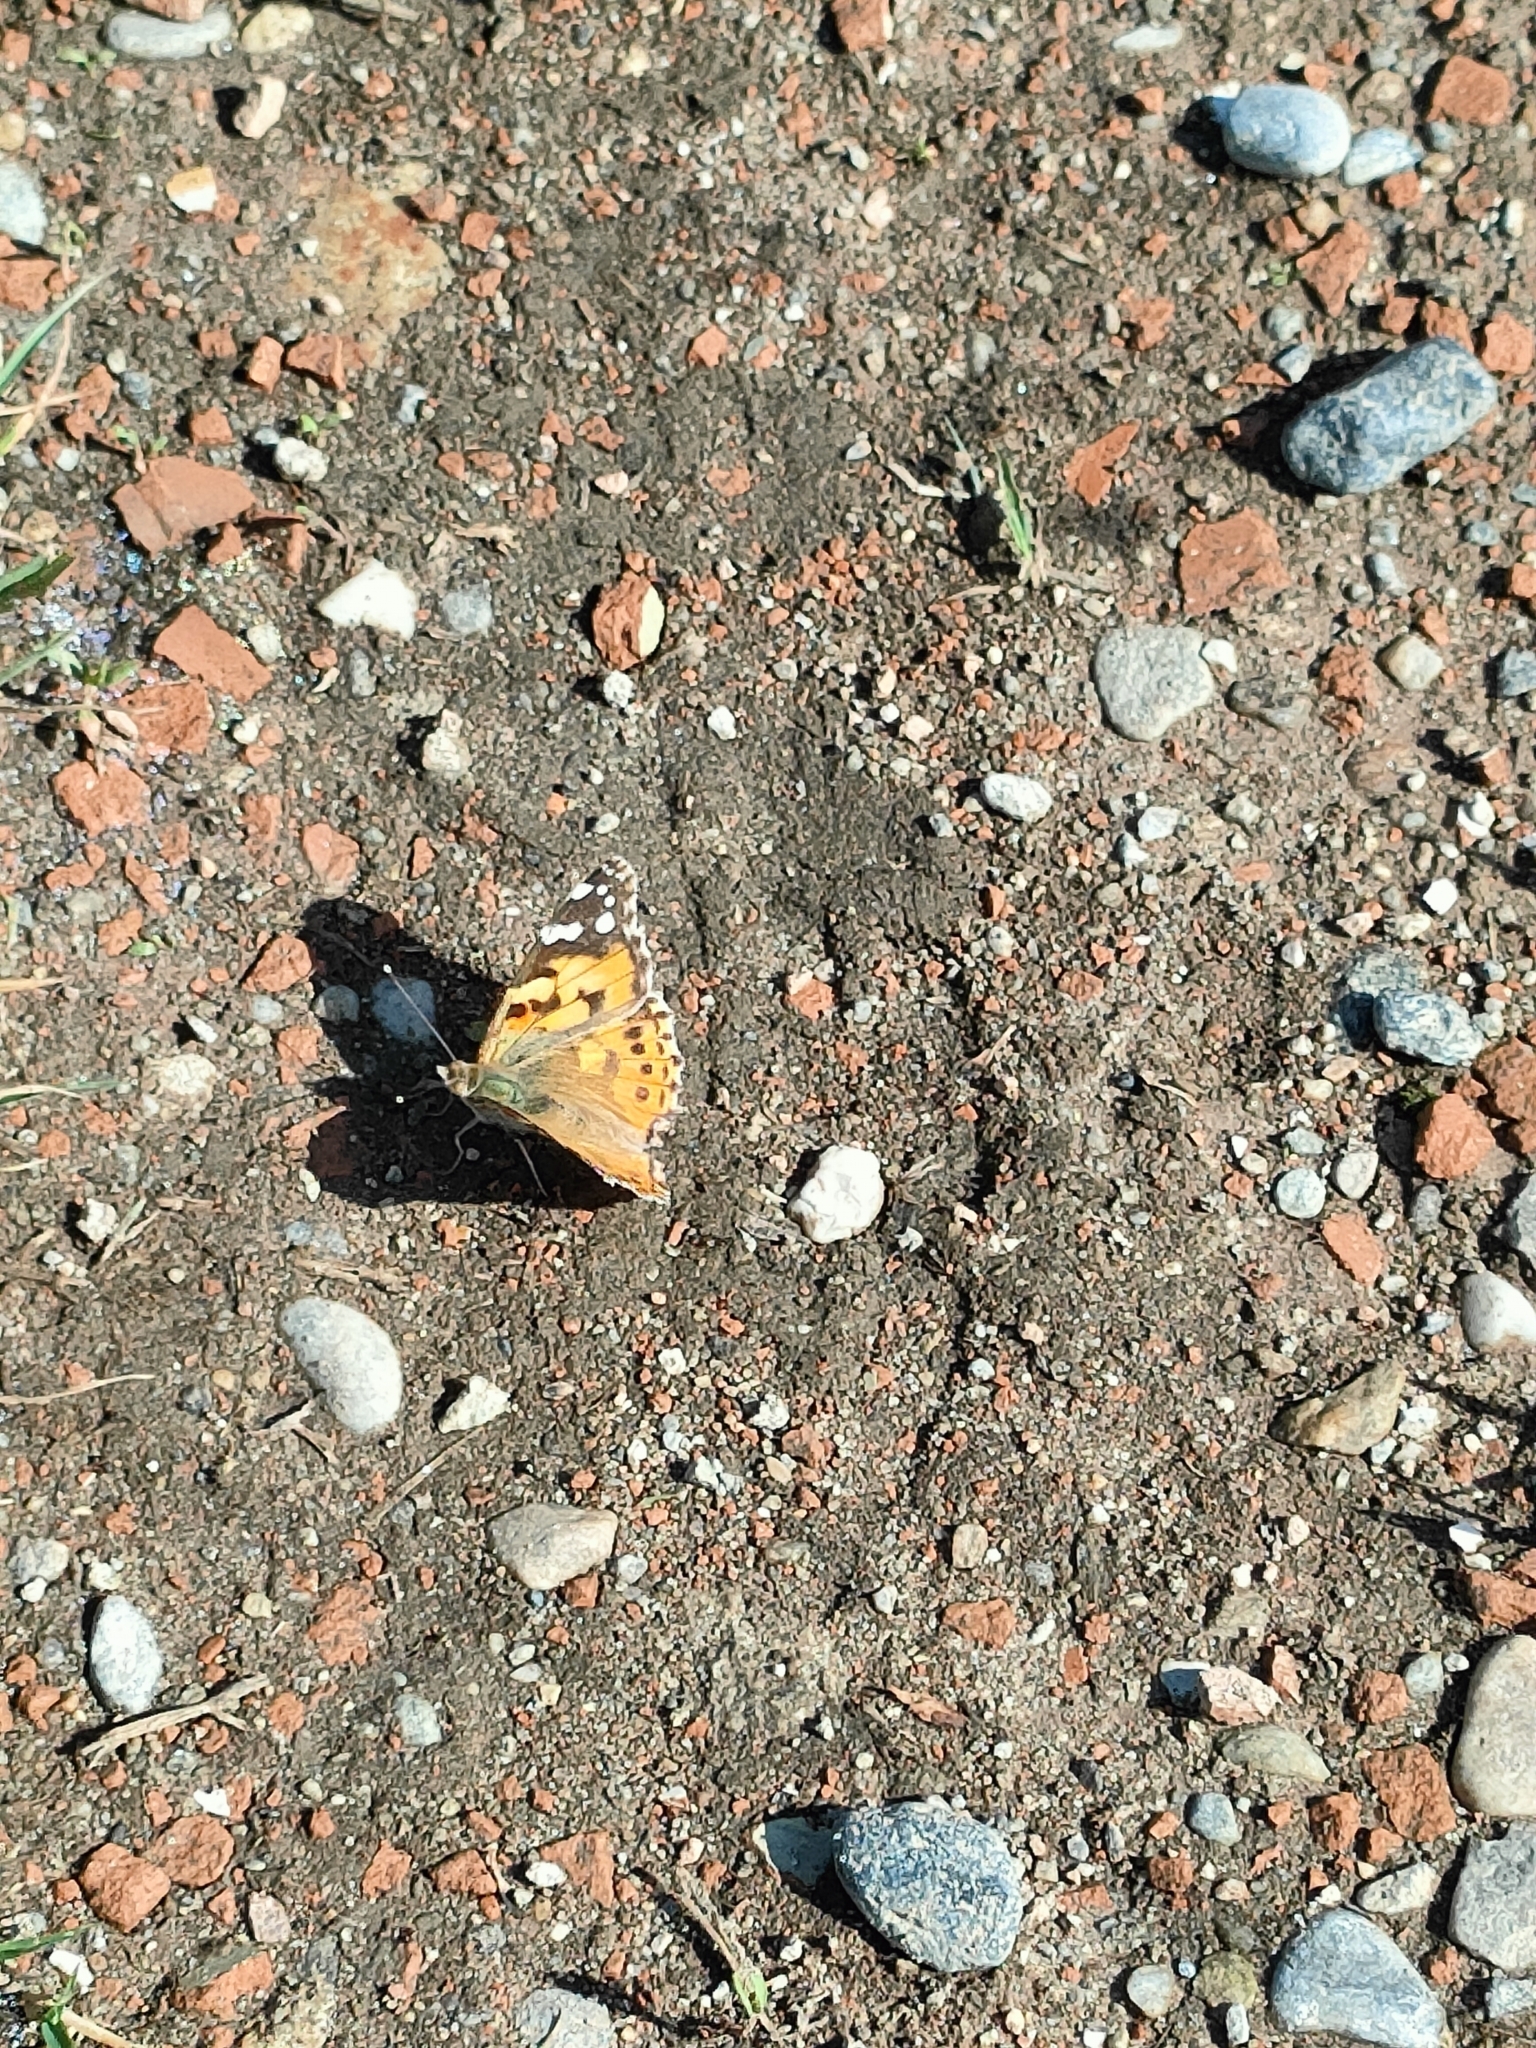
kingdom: Animalia
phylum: Arthropoda
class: Insecta
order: Lepidoptera
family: Nymphalidae
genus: Vanessa
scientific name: Vanessa cardui
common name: Painted lady
